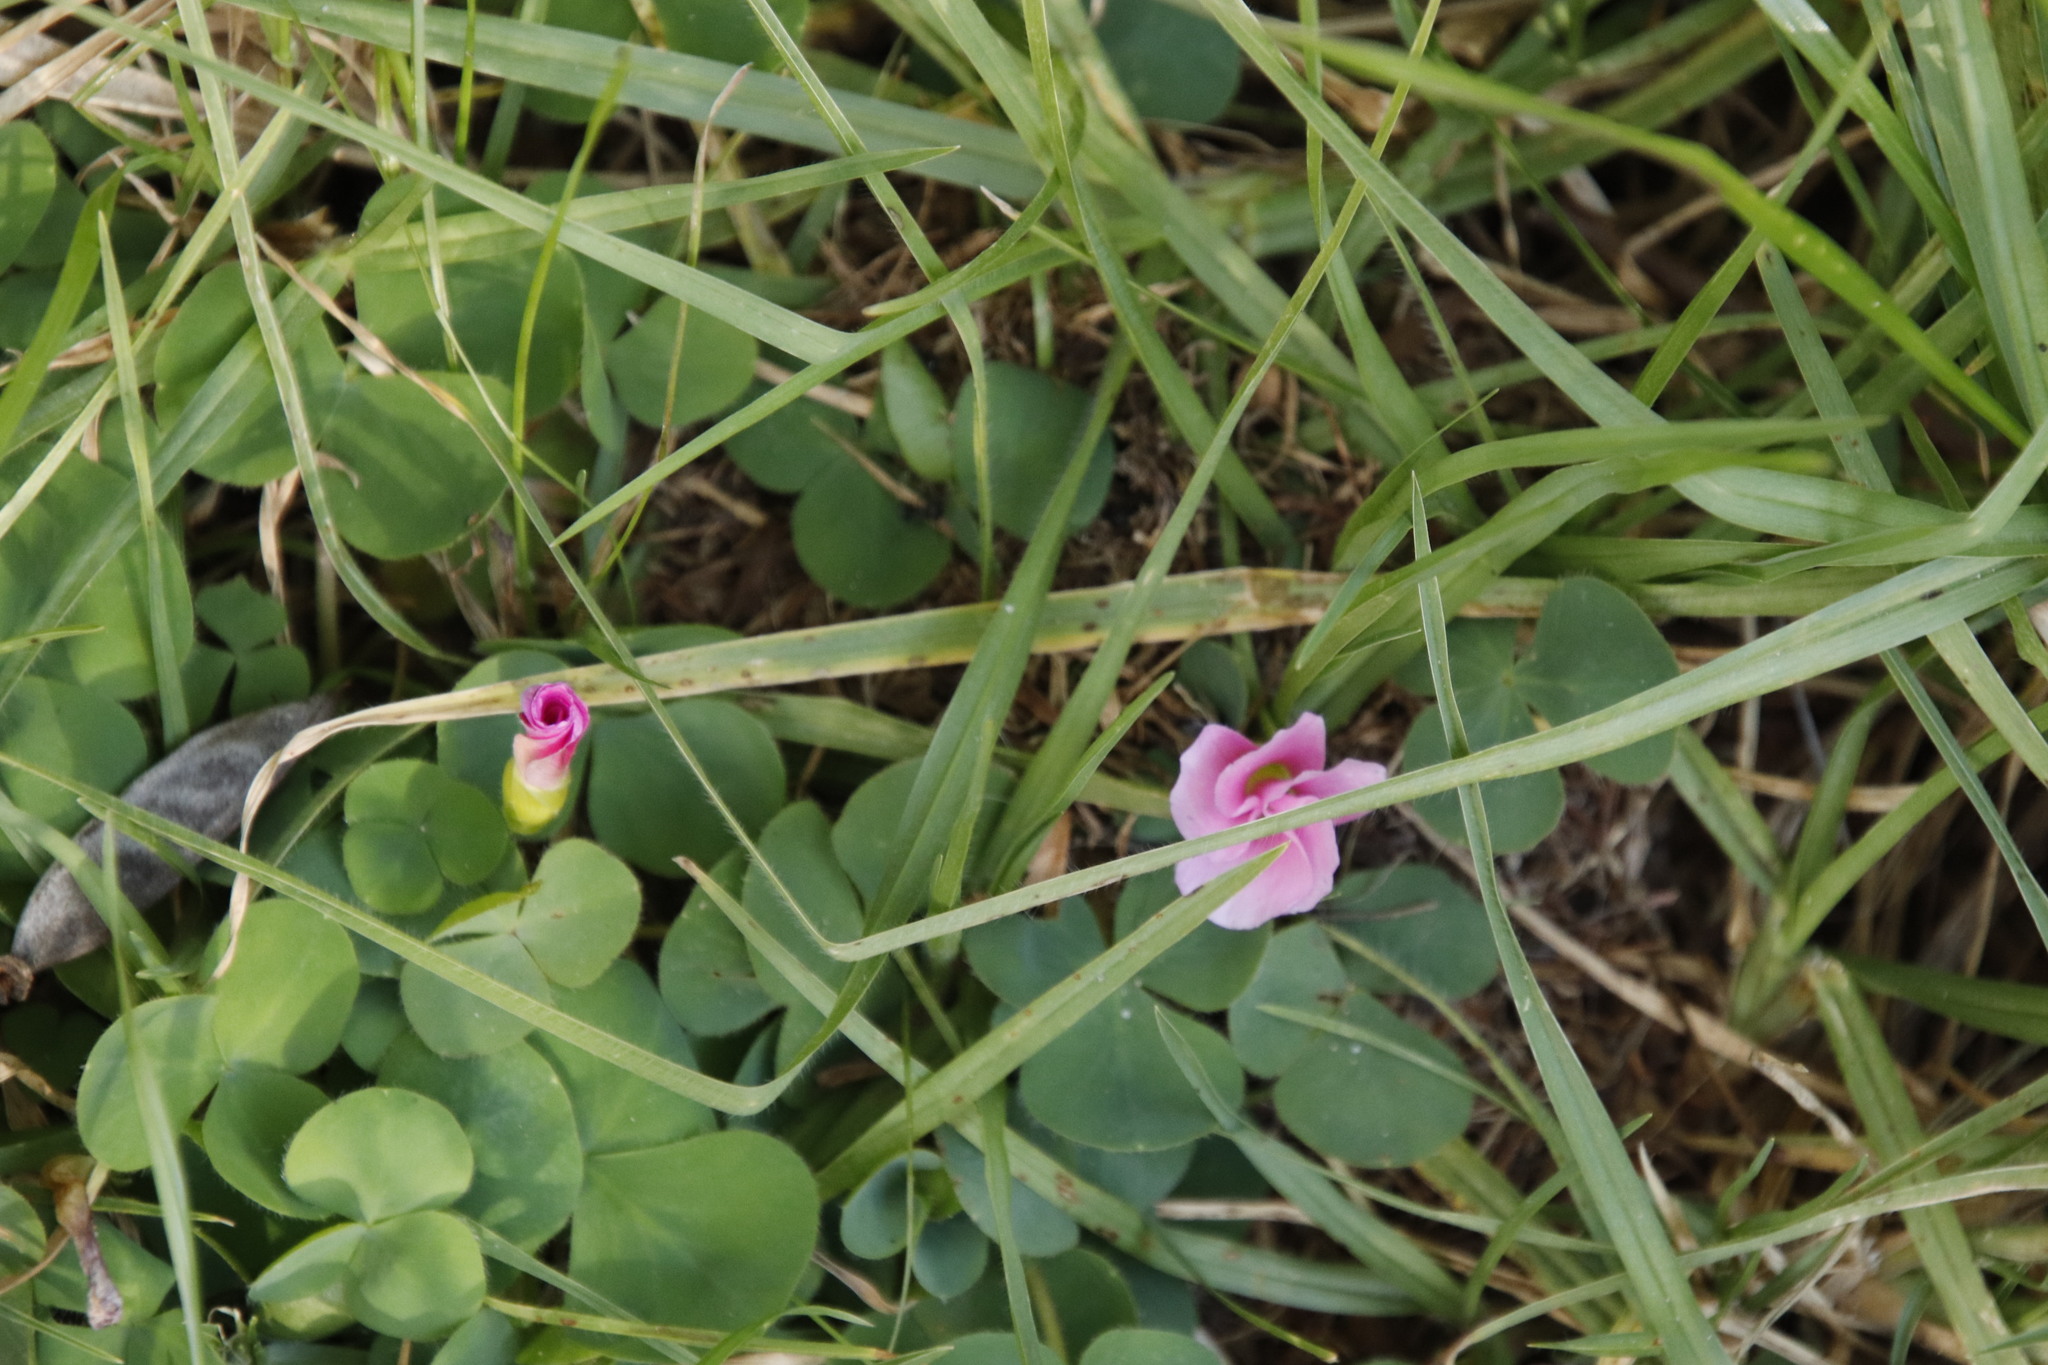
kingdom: Plantae
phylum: Tracheophyta
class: Magnoliopsida
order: Oxalidales
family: Oxalidaceae
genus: Oxalis
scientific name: Oxalis purpurea
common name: Purple woodsorrel
